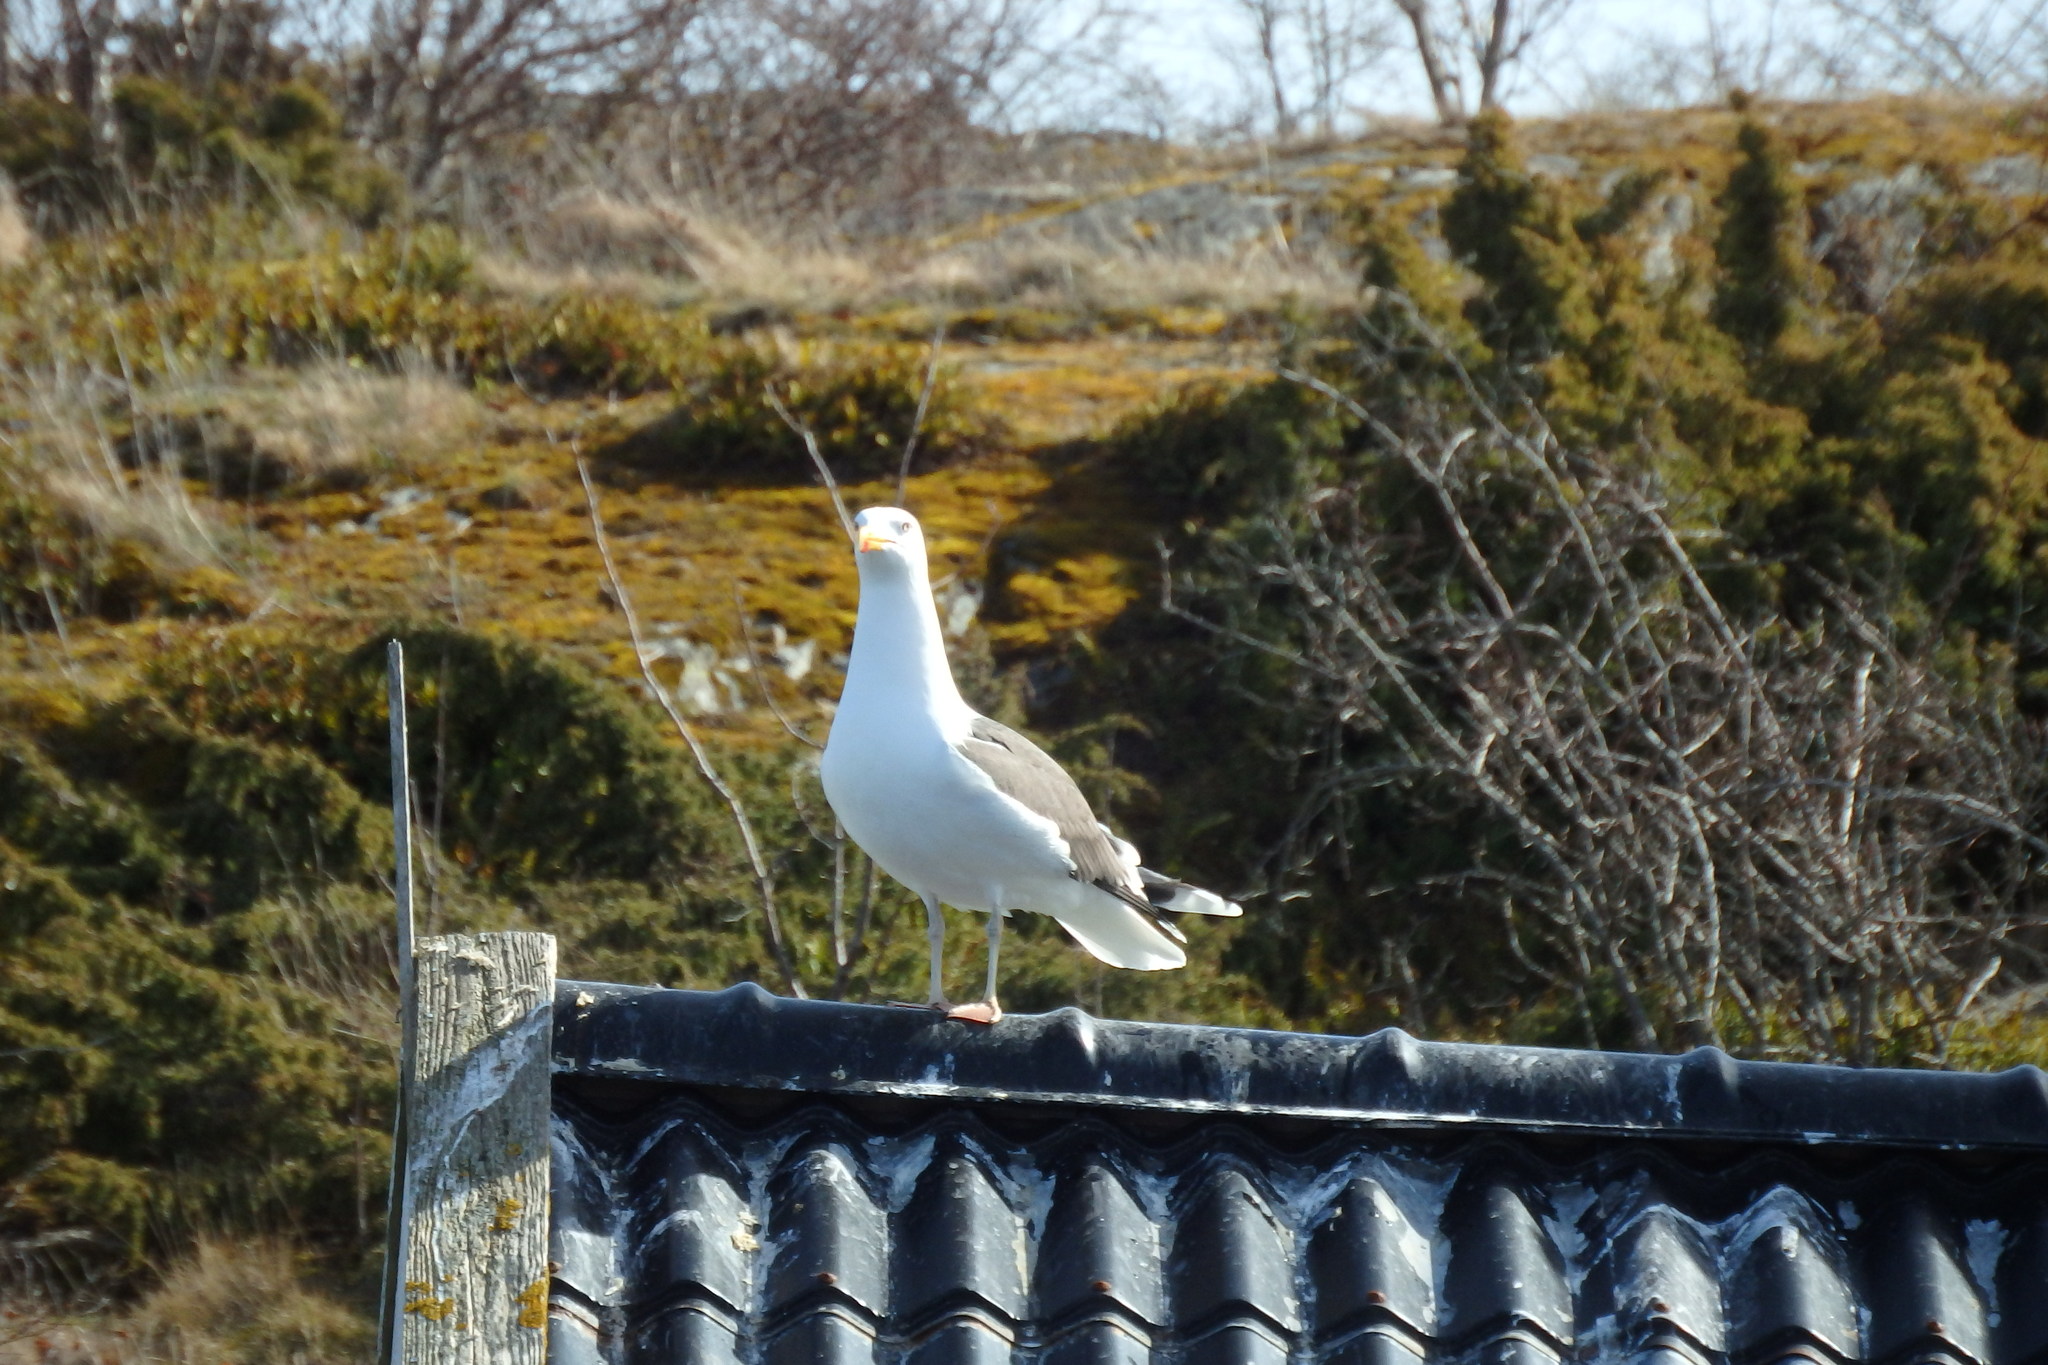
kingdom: Animalia
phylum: Chordata
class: Aves
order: Charadriiformes
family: Laridae
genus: Larus
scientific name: Larus argentatus
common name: Herring gull
